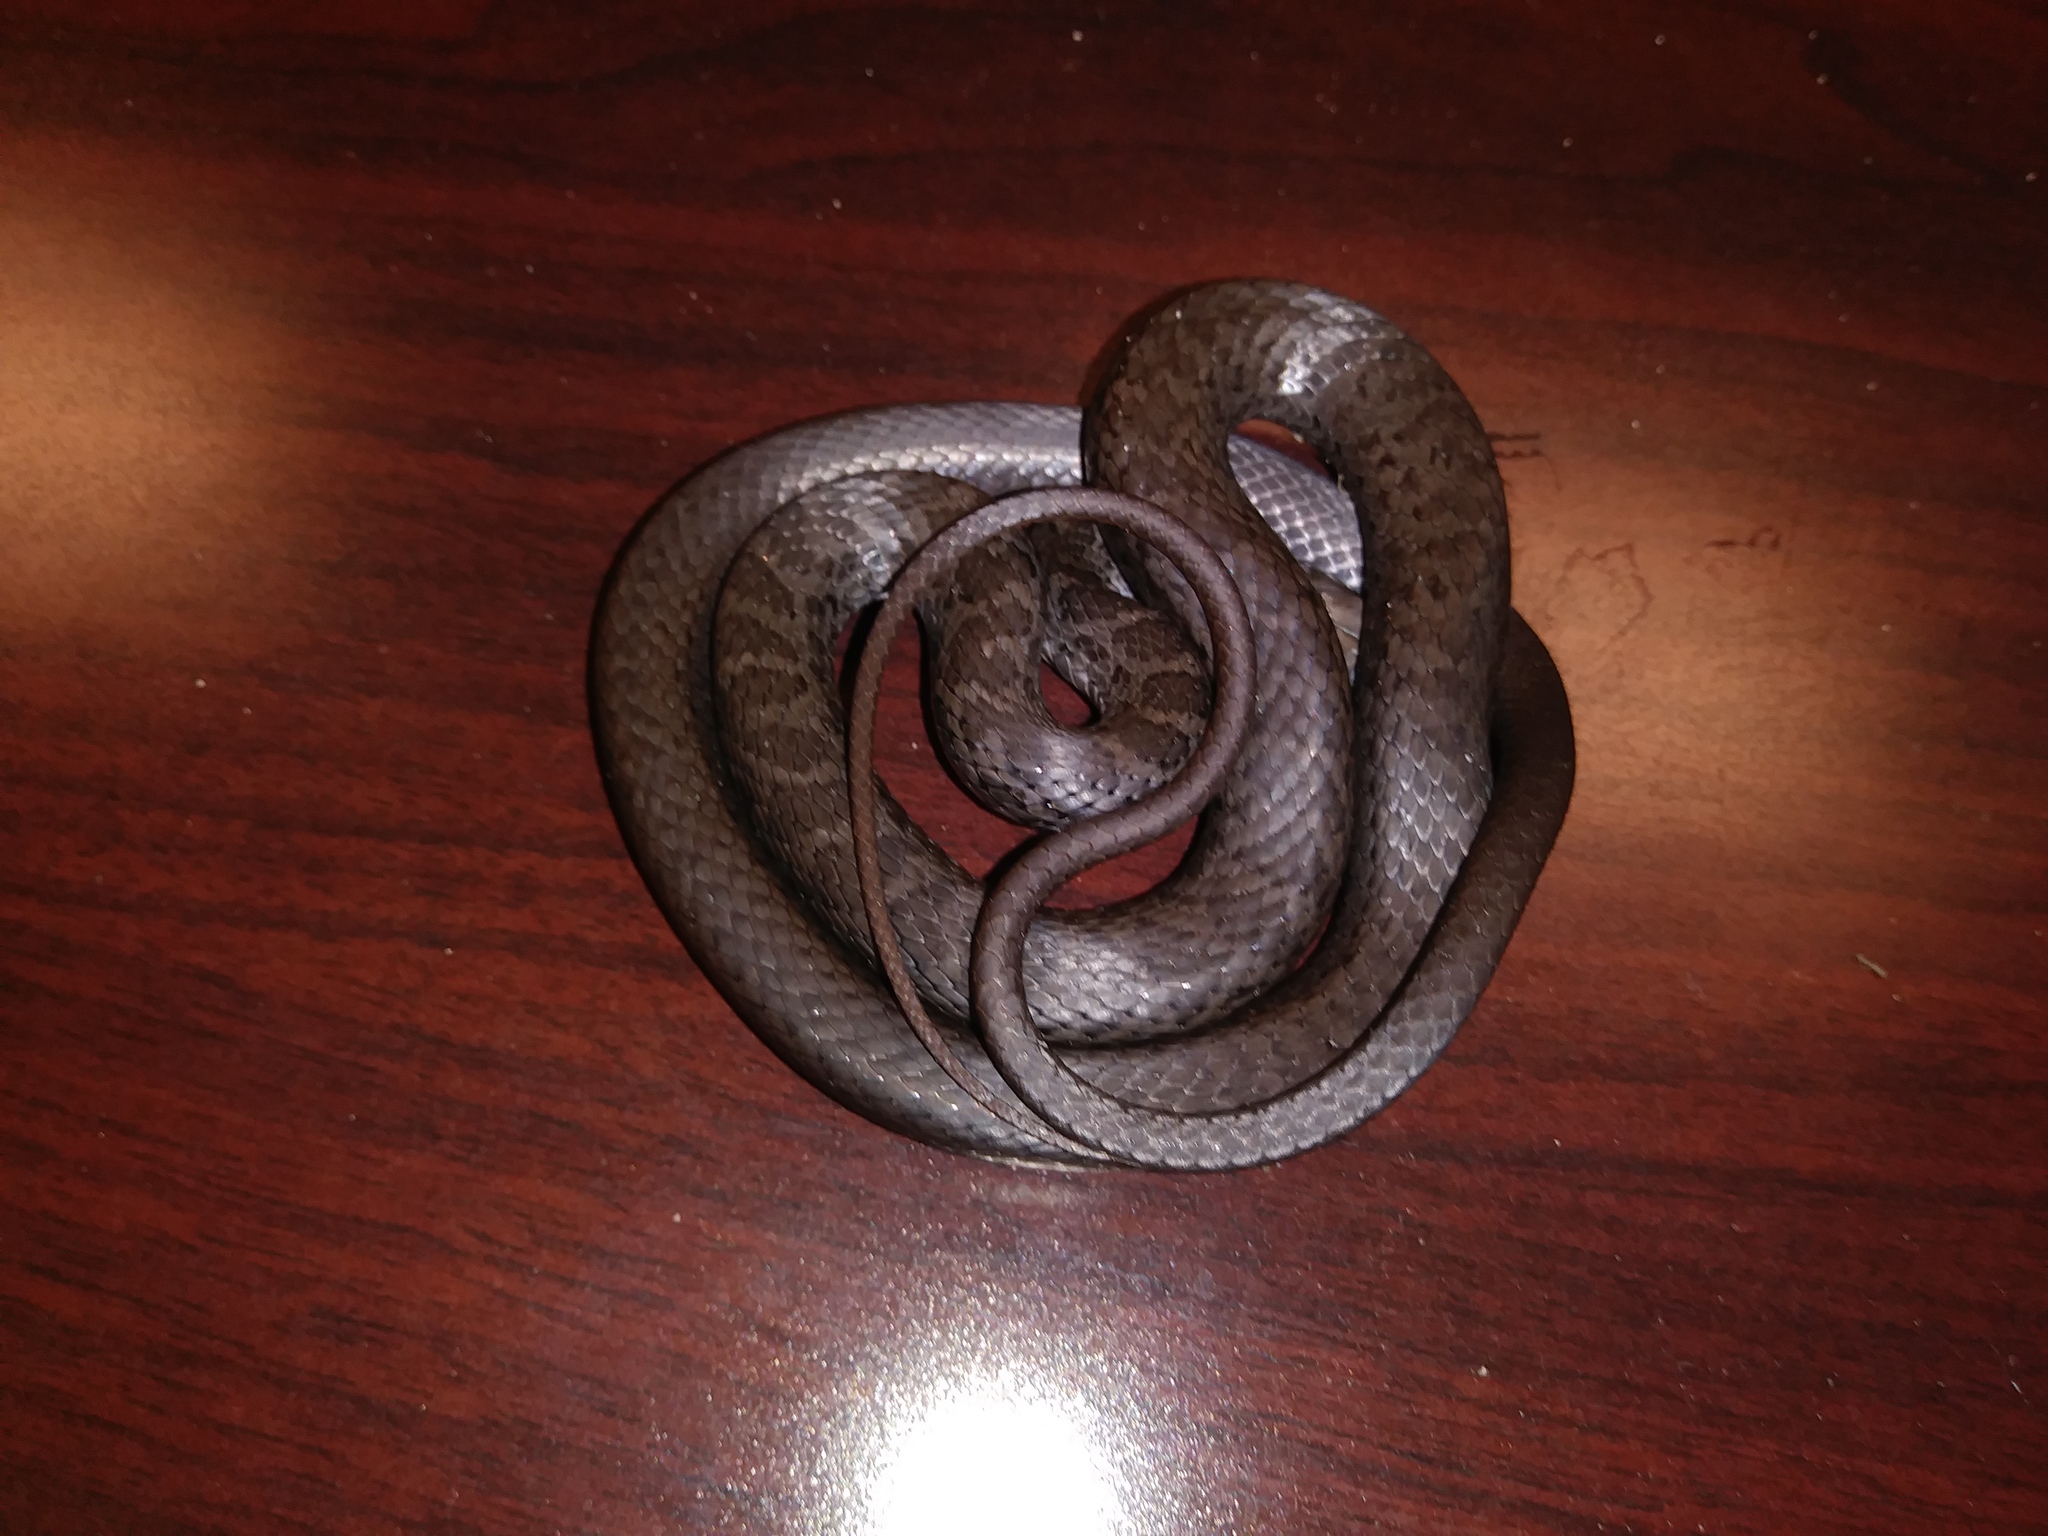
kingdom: Animalia
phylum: Chordata
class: Squamata
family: Colubridae
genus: Coluber
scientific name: Coluber constrictor
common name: Eastern racer
